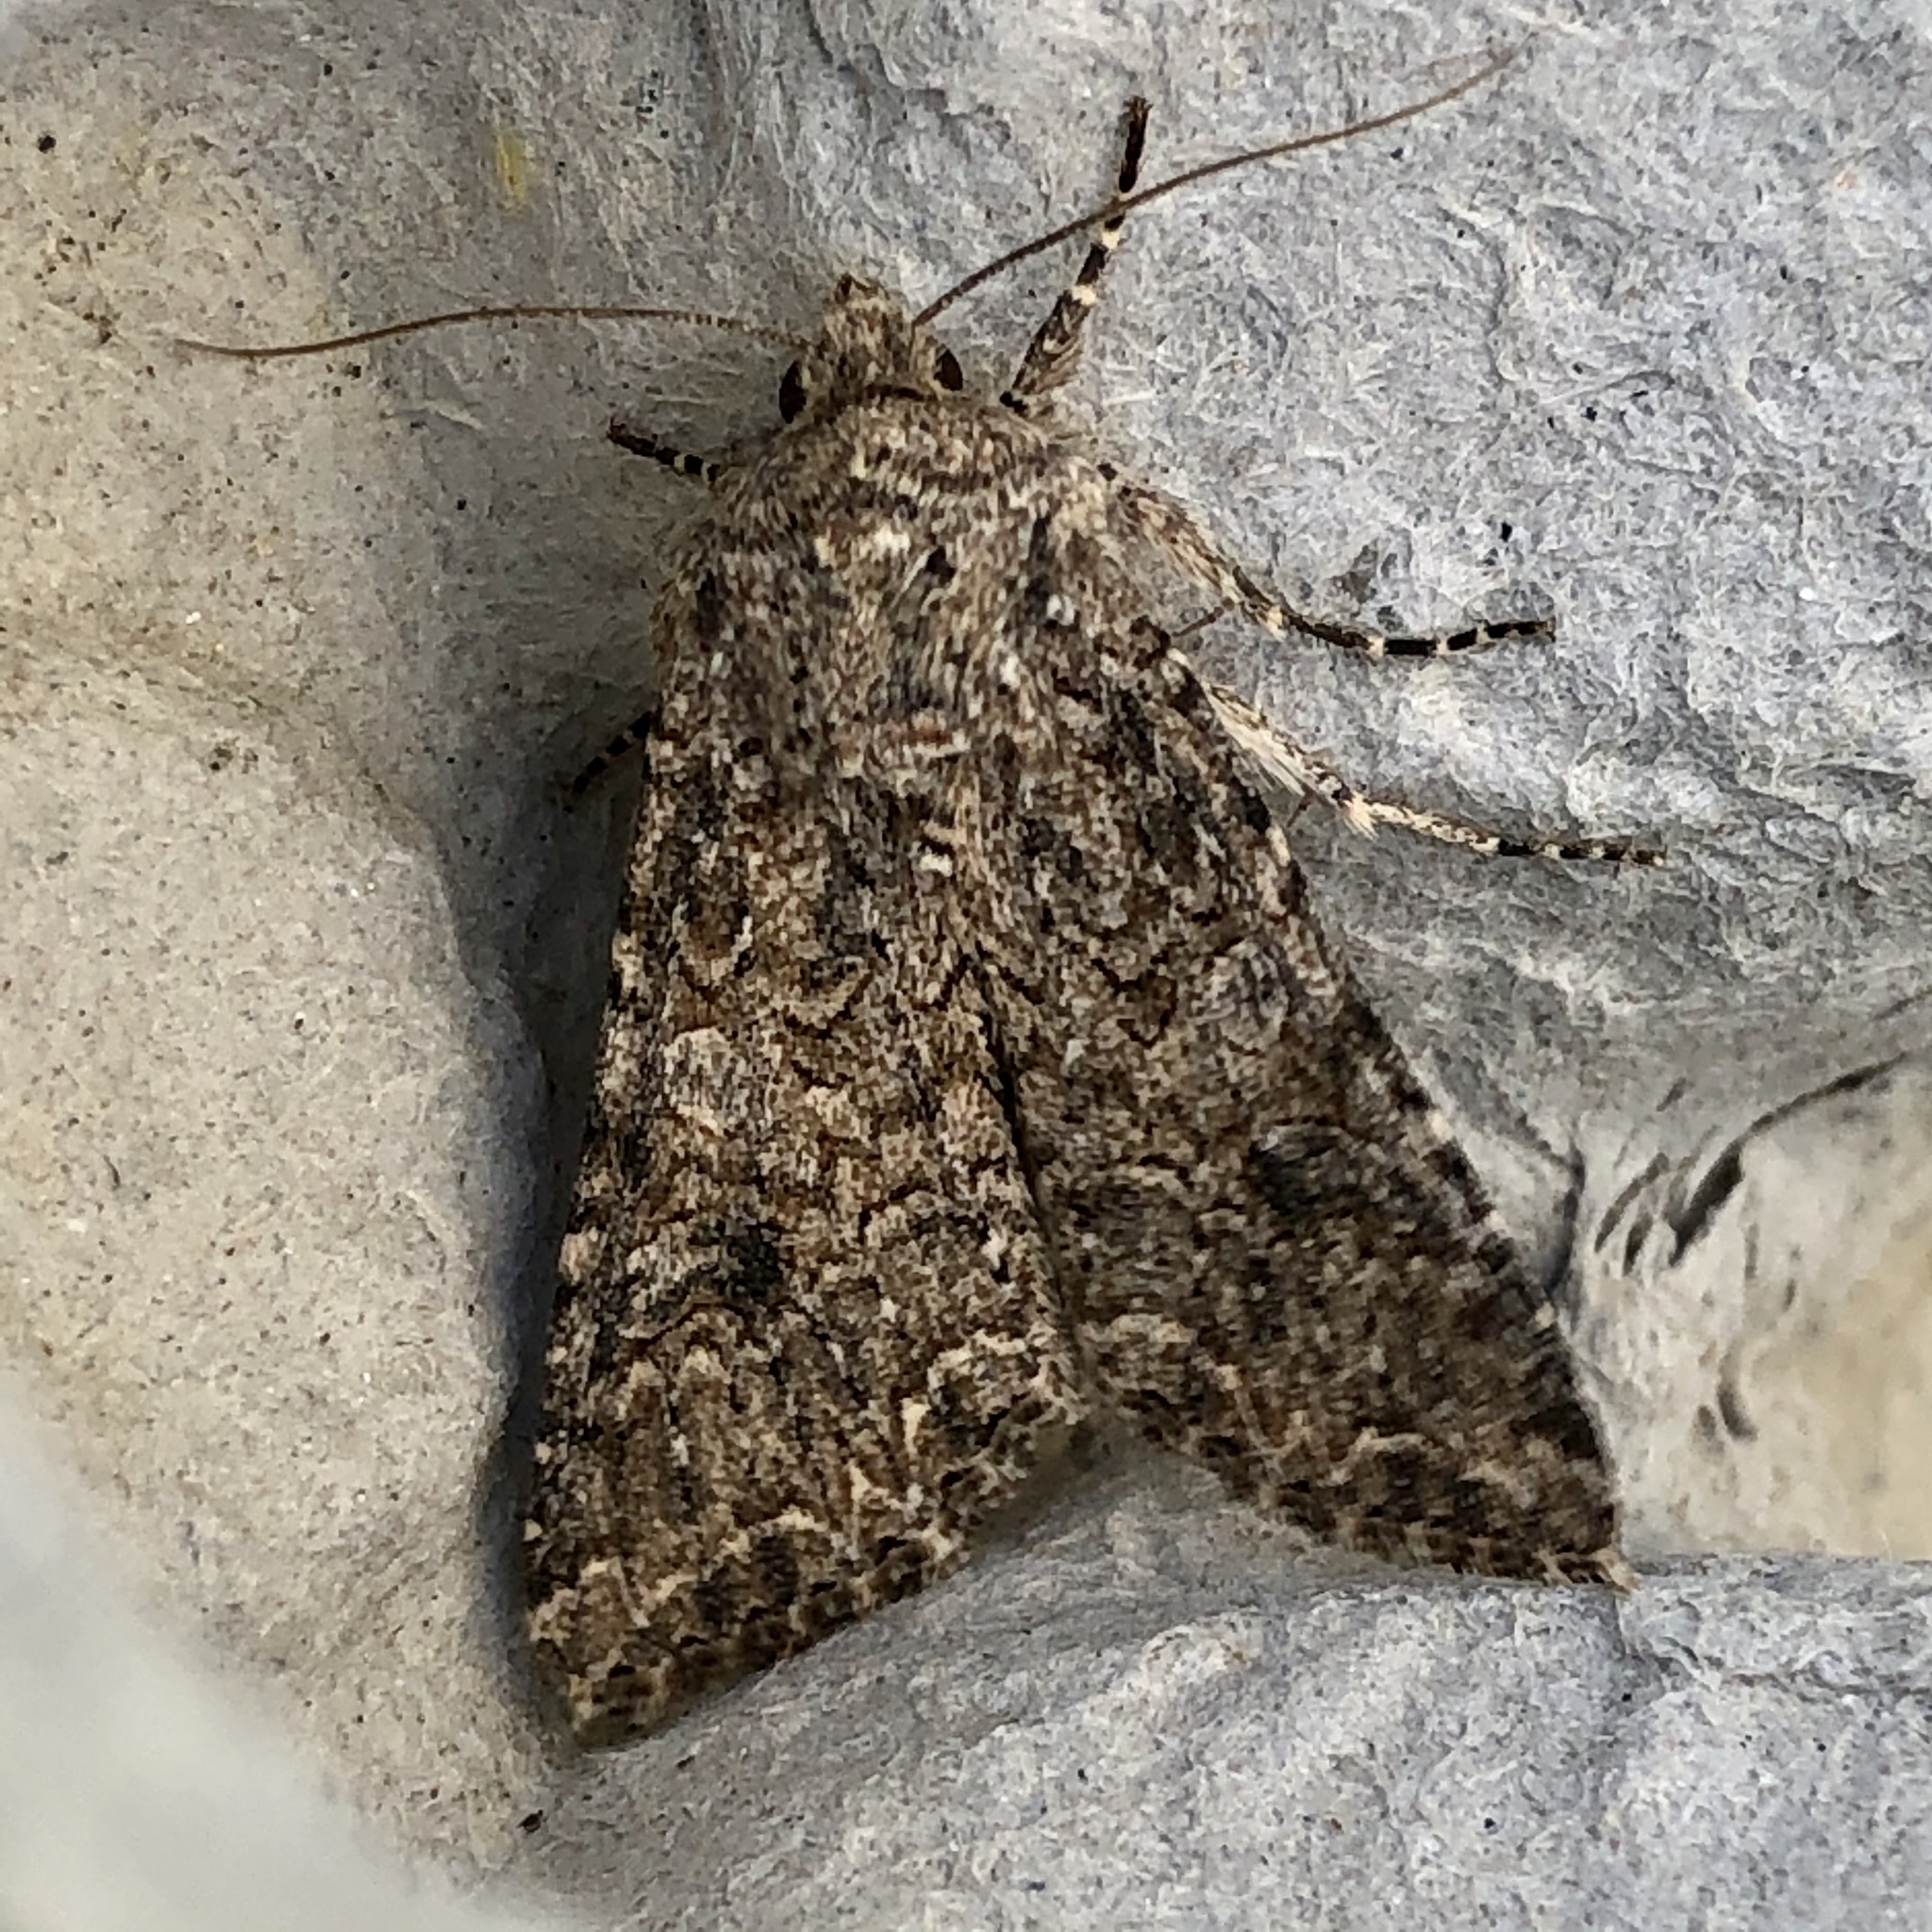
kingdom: Animalia
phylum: Arthropoda
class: Insecta
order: Lepidoptera
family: Noctuidae
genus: Anarta
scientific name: Anarta trifolii
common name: Clover cutworm moth
